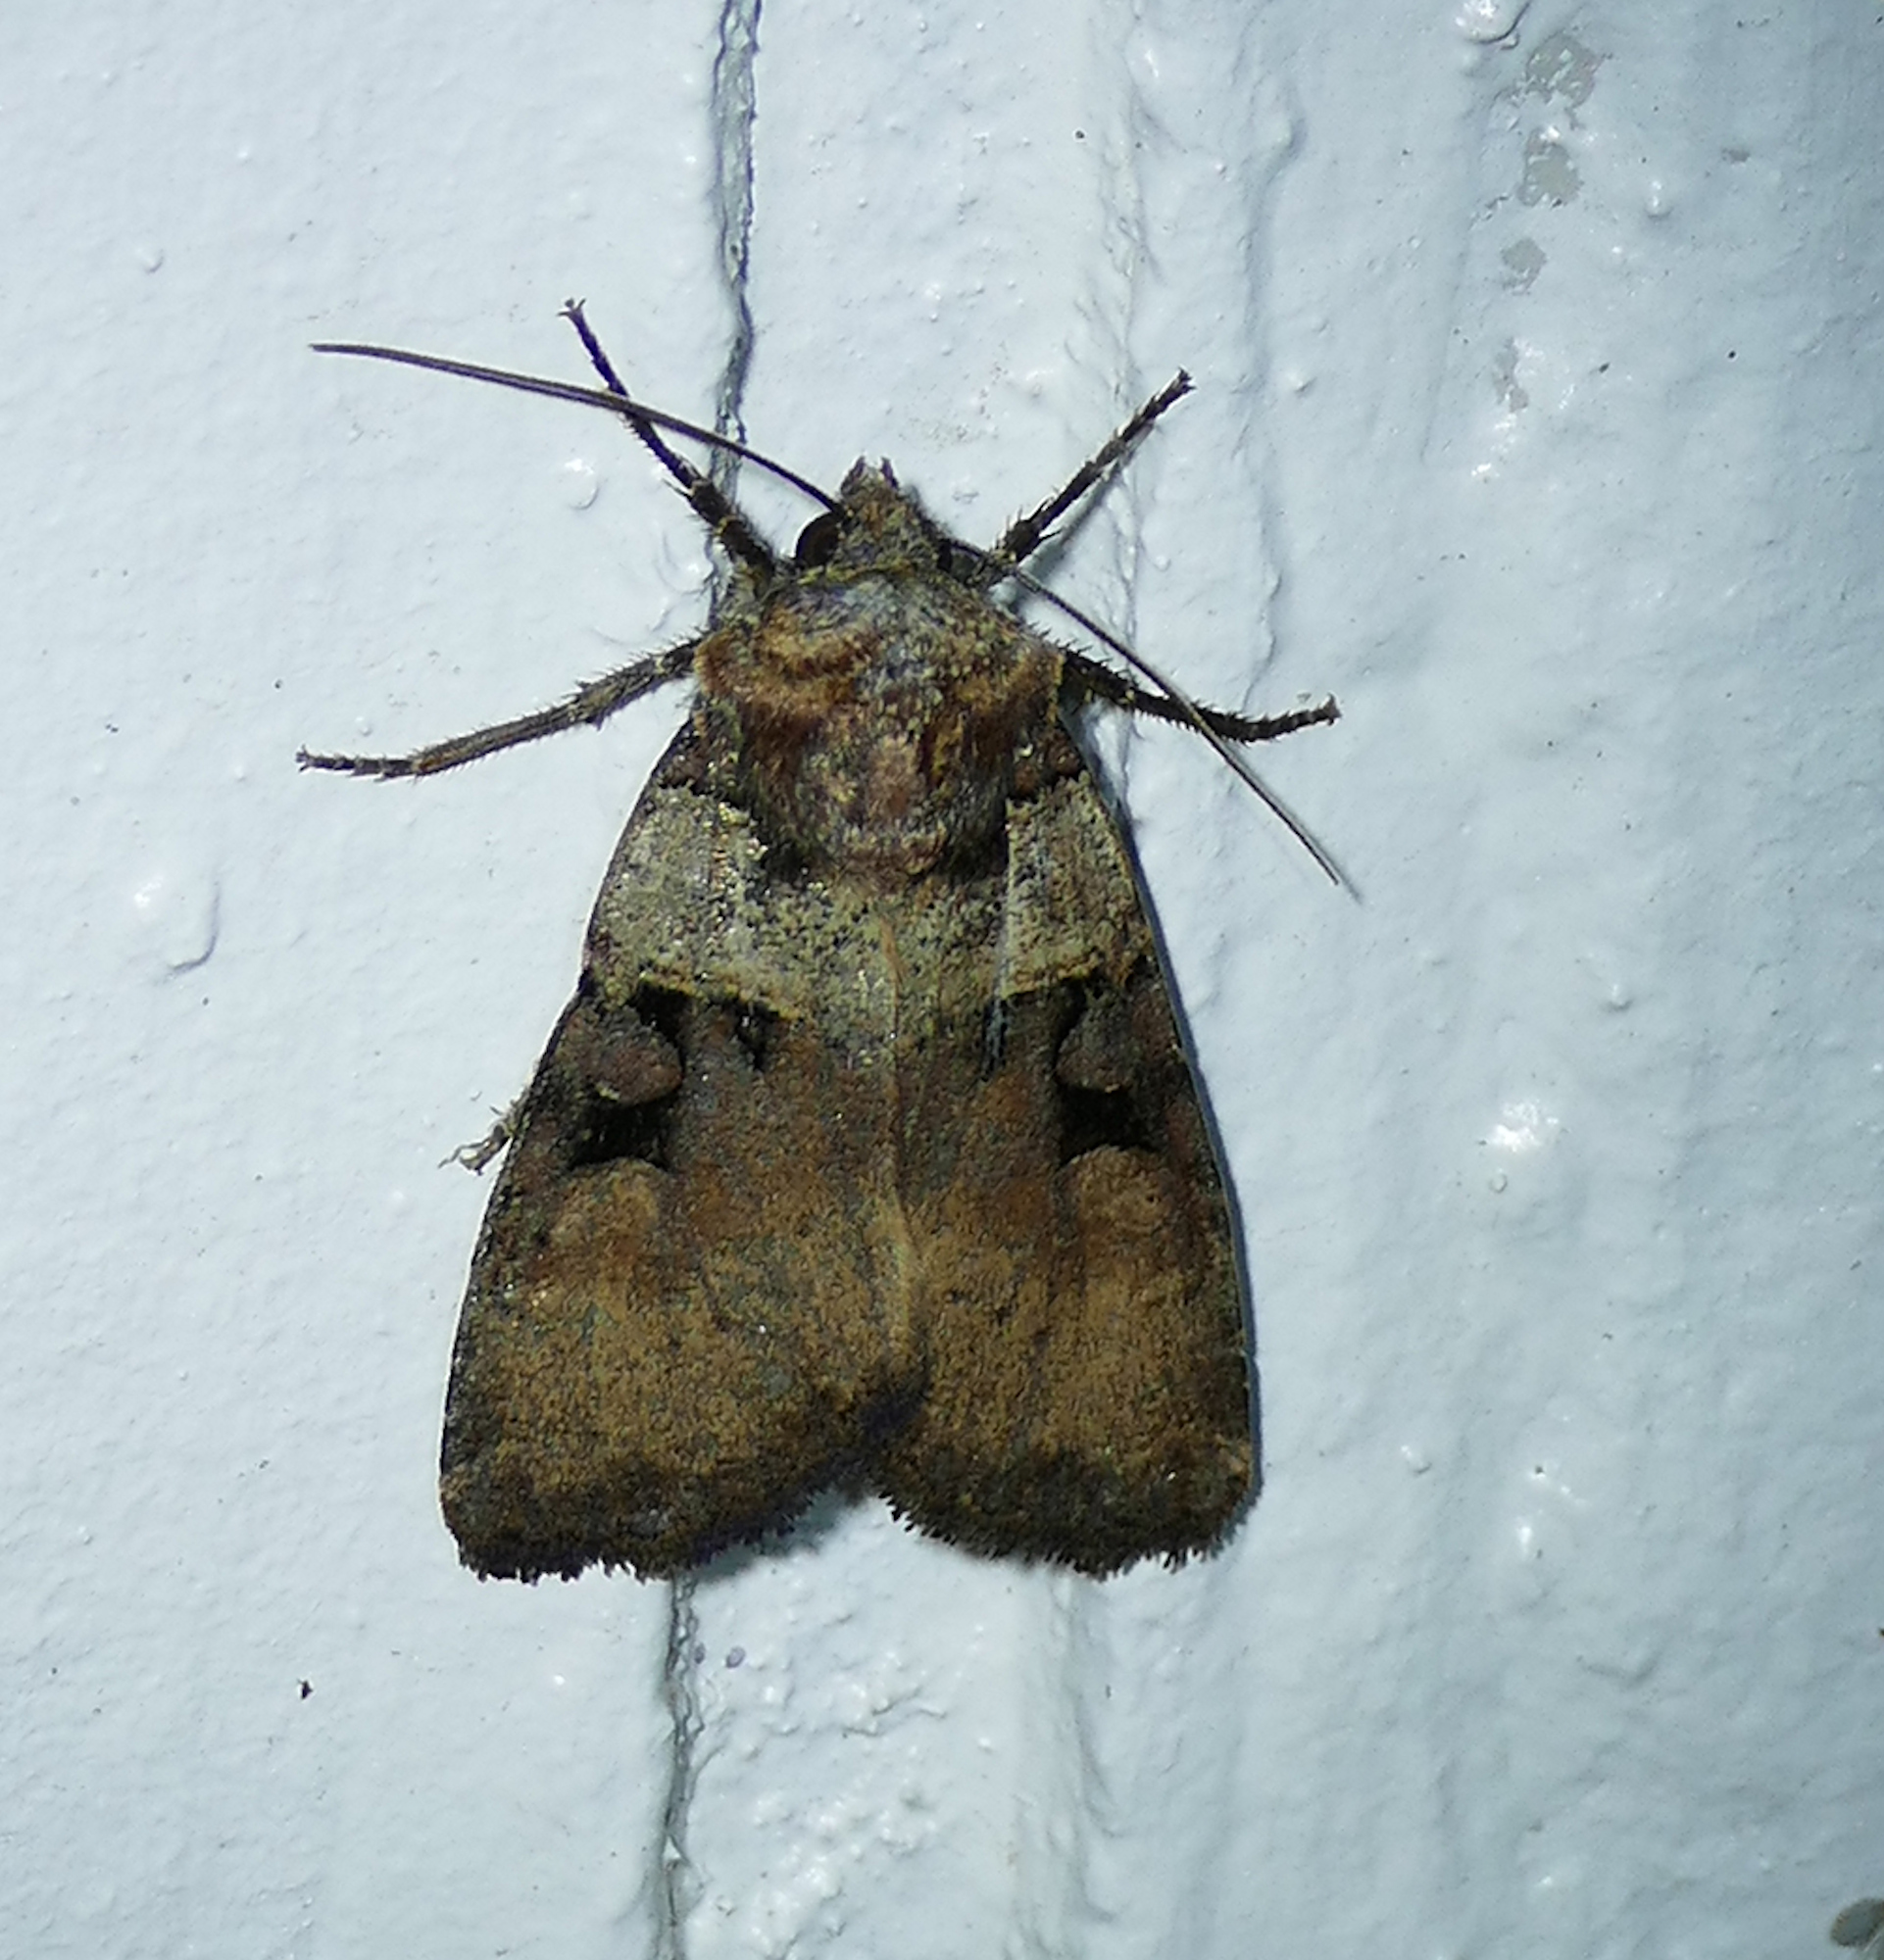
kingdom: Animalia
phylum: Arthropoda
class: Insecta
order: Lepidoptera
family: Noctuidae
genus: Richia
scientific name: Richia serano
